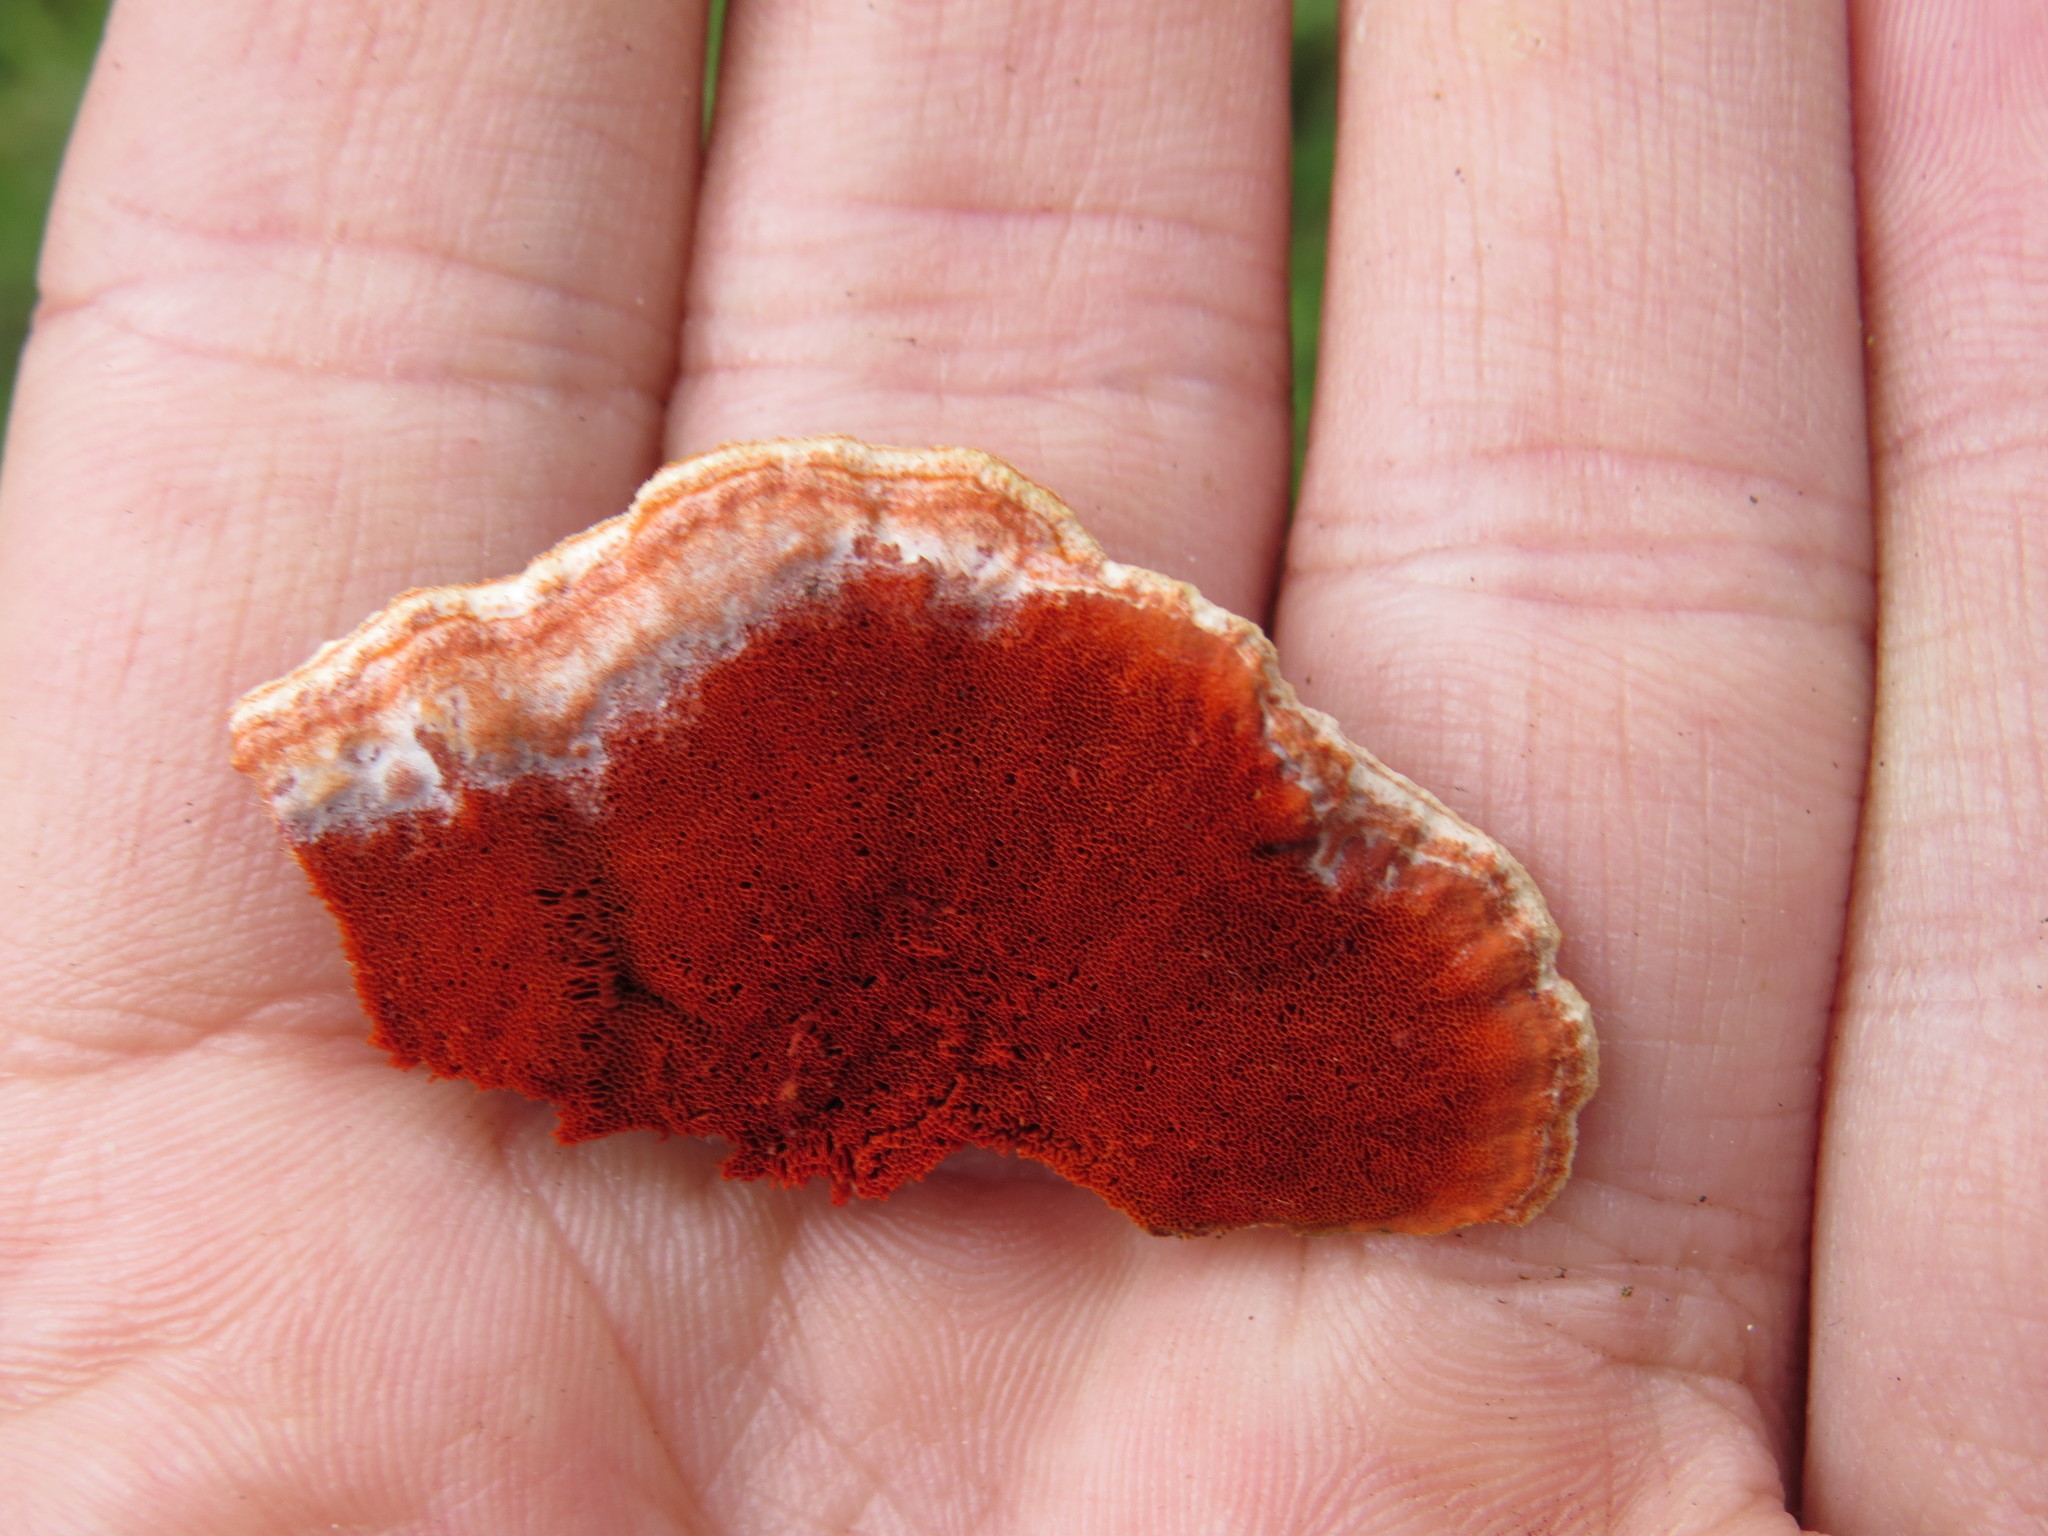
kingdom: Fungi
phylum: Basidiomycota
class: Agaricomycetes
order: Polyporales
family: Polyporaceae
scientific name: Polyporaceae
